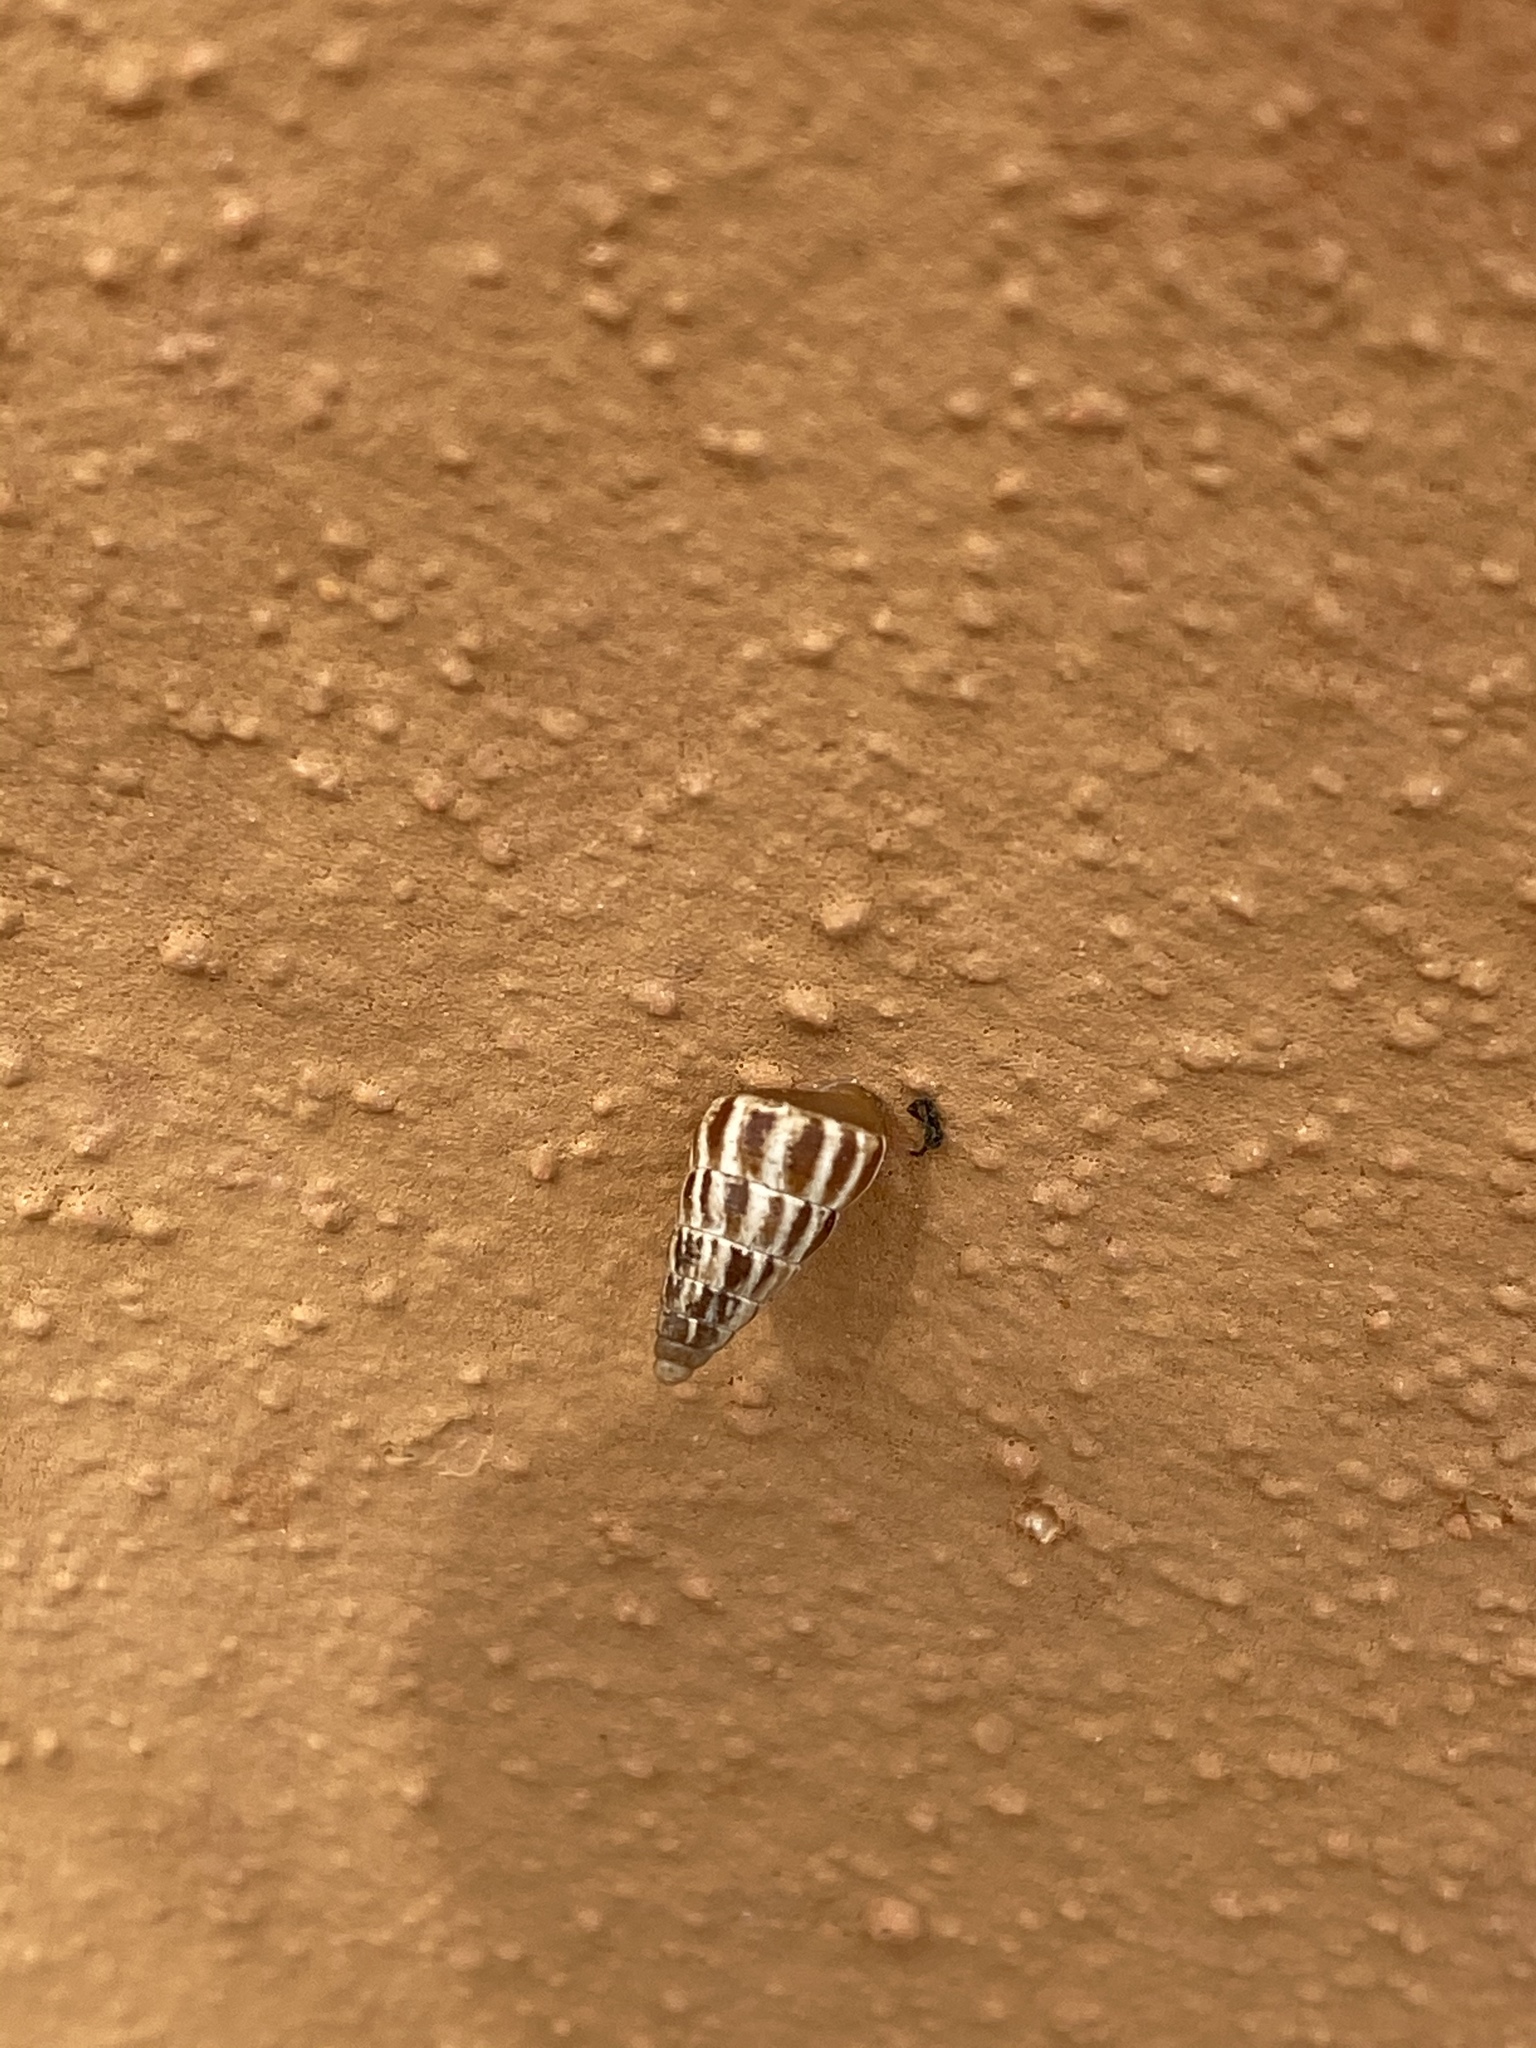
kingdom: Animalia
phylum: Mollusca
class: Gastropoda
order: Stylommatophora
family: Geomitridae
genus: Cochlicella
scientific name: Cochlicella acuta
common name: Pointed snail
